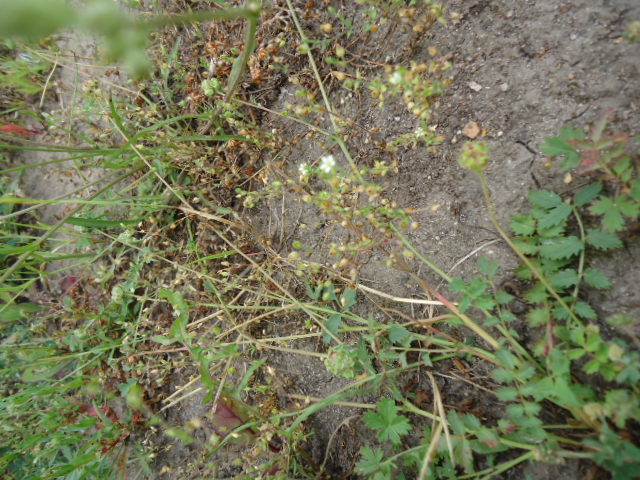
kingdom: Plantae
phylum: Tracheophyta
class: Magnoliopsida
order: Caryophyllales
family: Caryophyllaceae
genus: Arenaria
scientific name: Arenaria serpyllifolia
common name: Thyme-leaved sandwort
